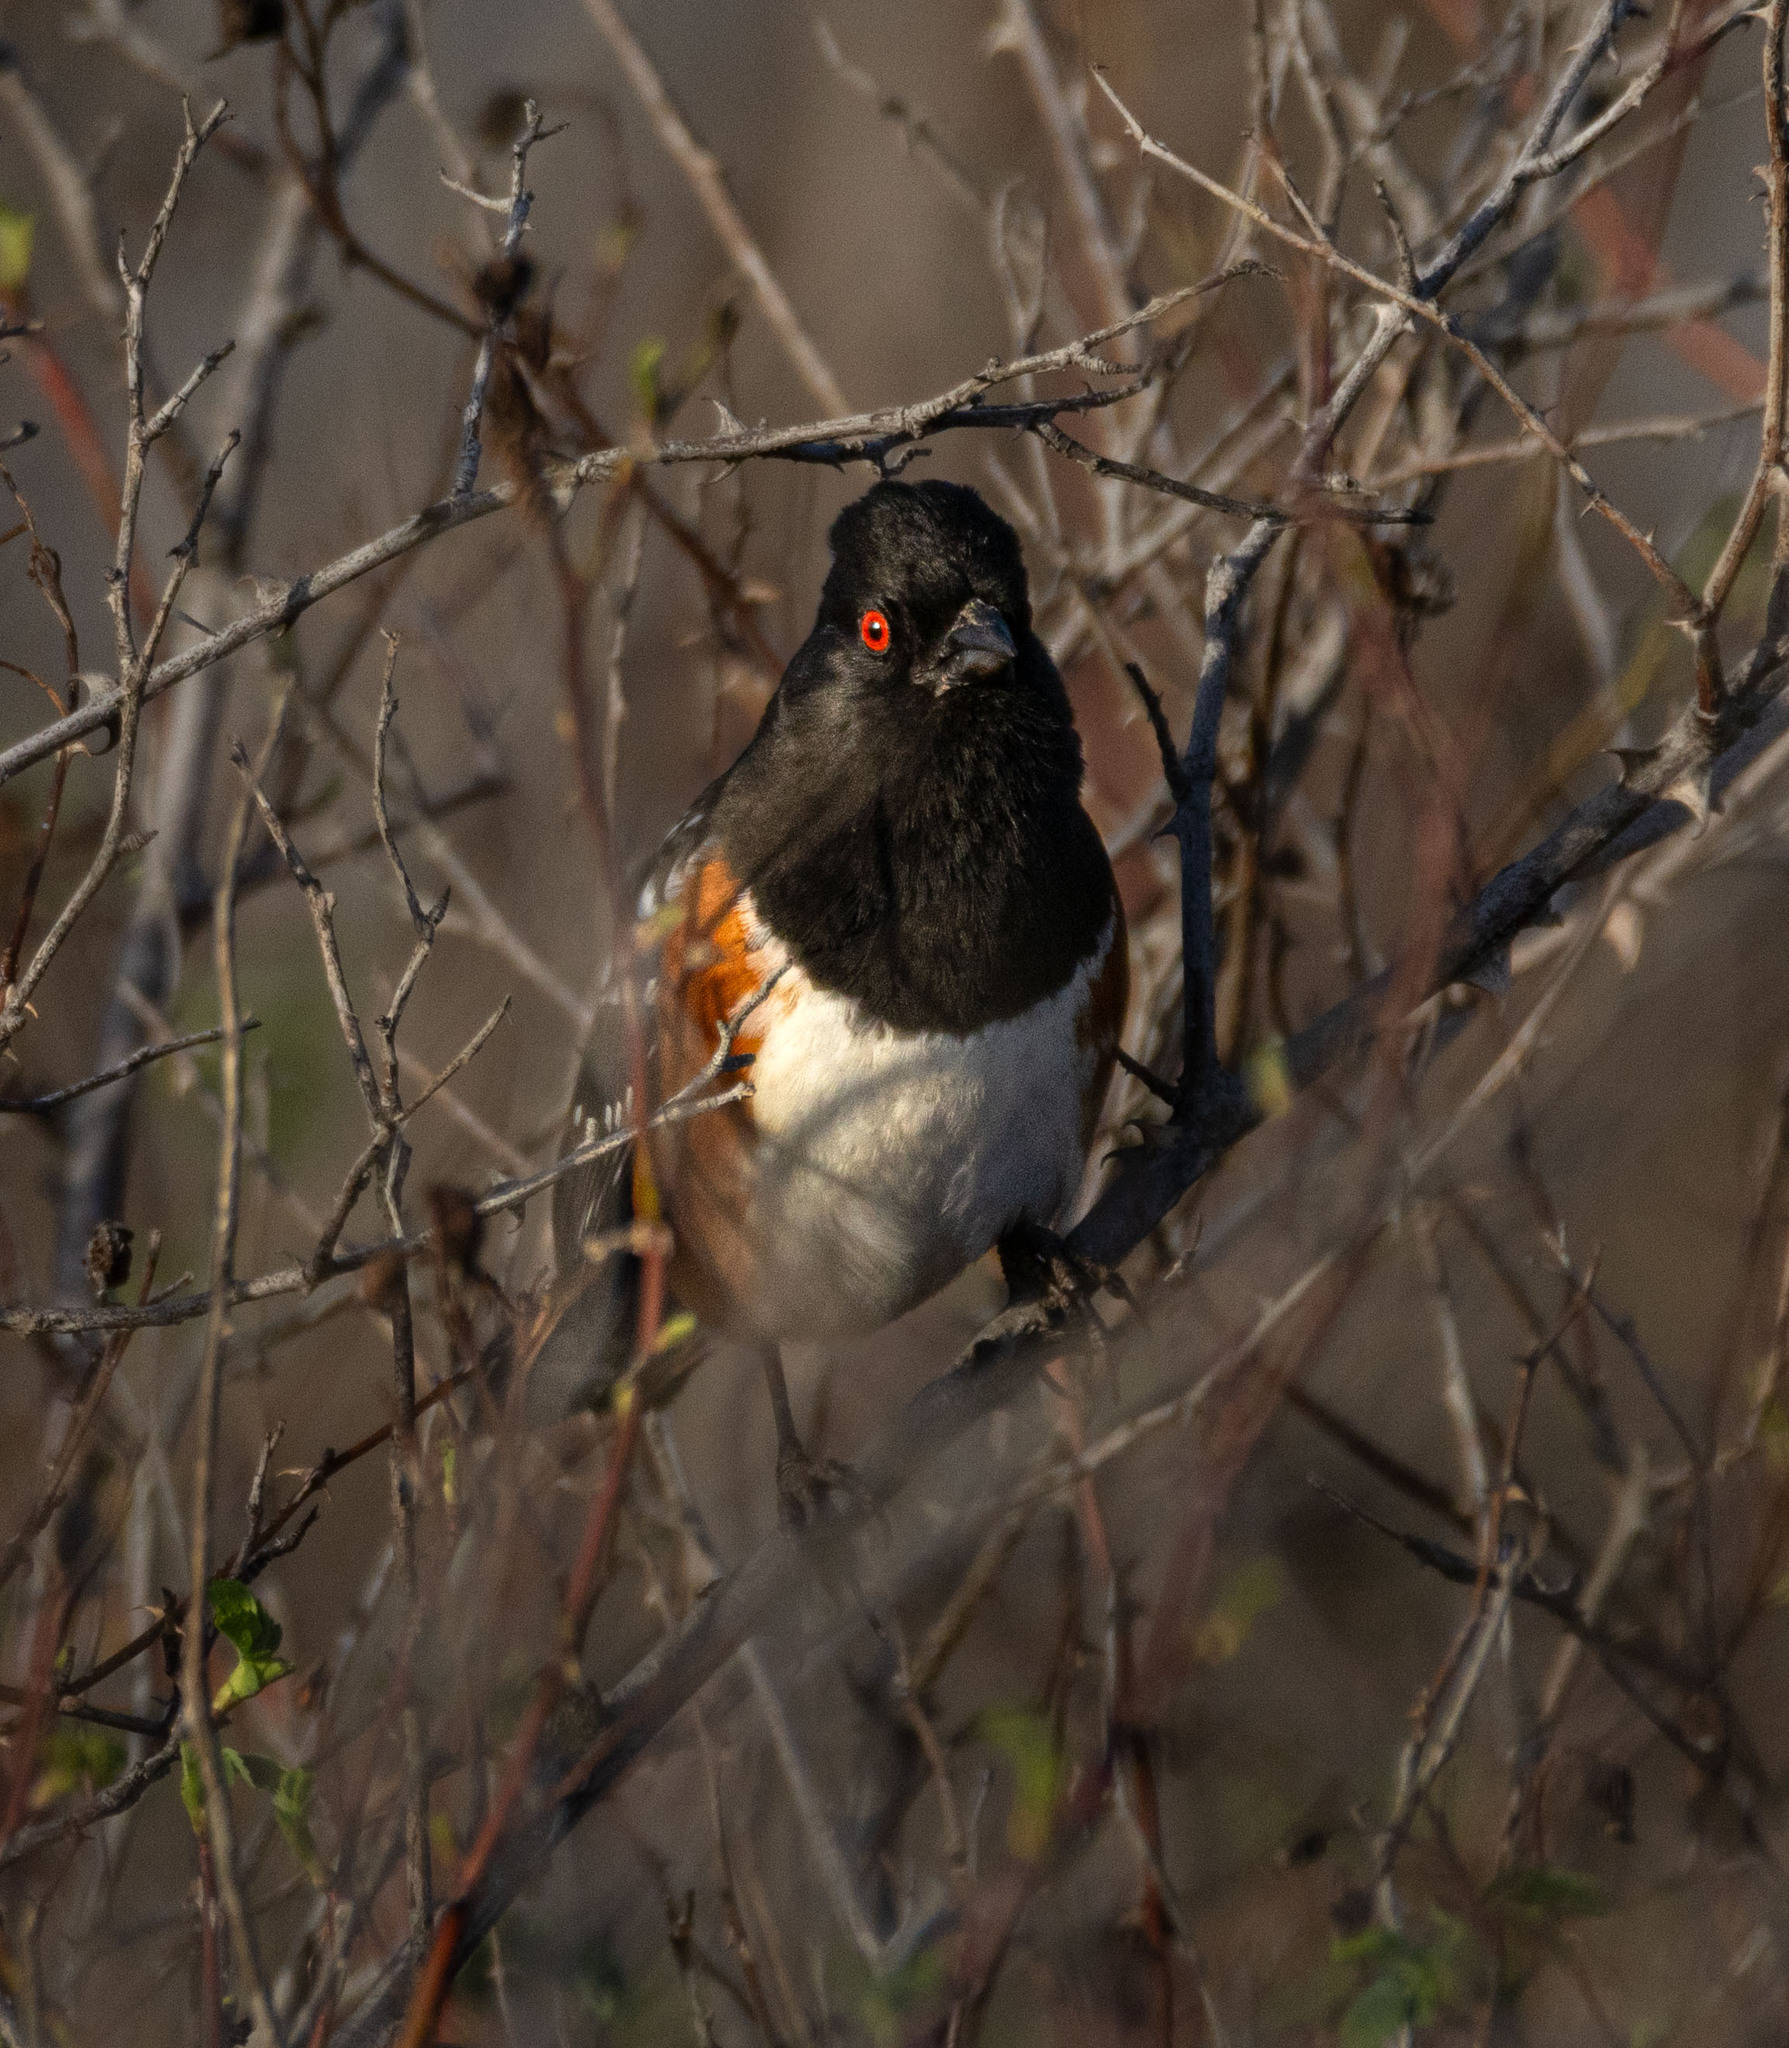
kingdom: Animalia
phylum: Chordata
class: Aves
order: Passeriformes
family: Passerellidae
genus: Pipilo
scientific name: Pipilo maculatus
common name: Spotted towhee
